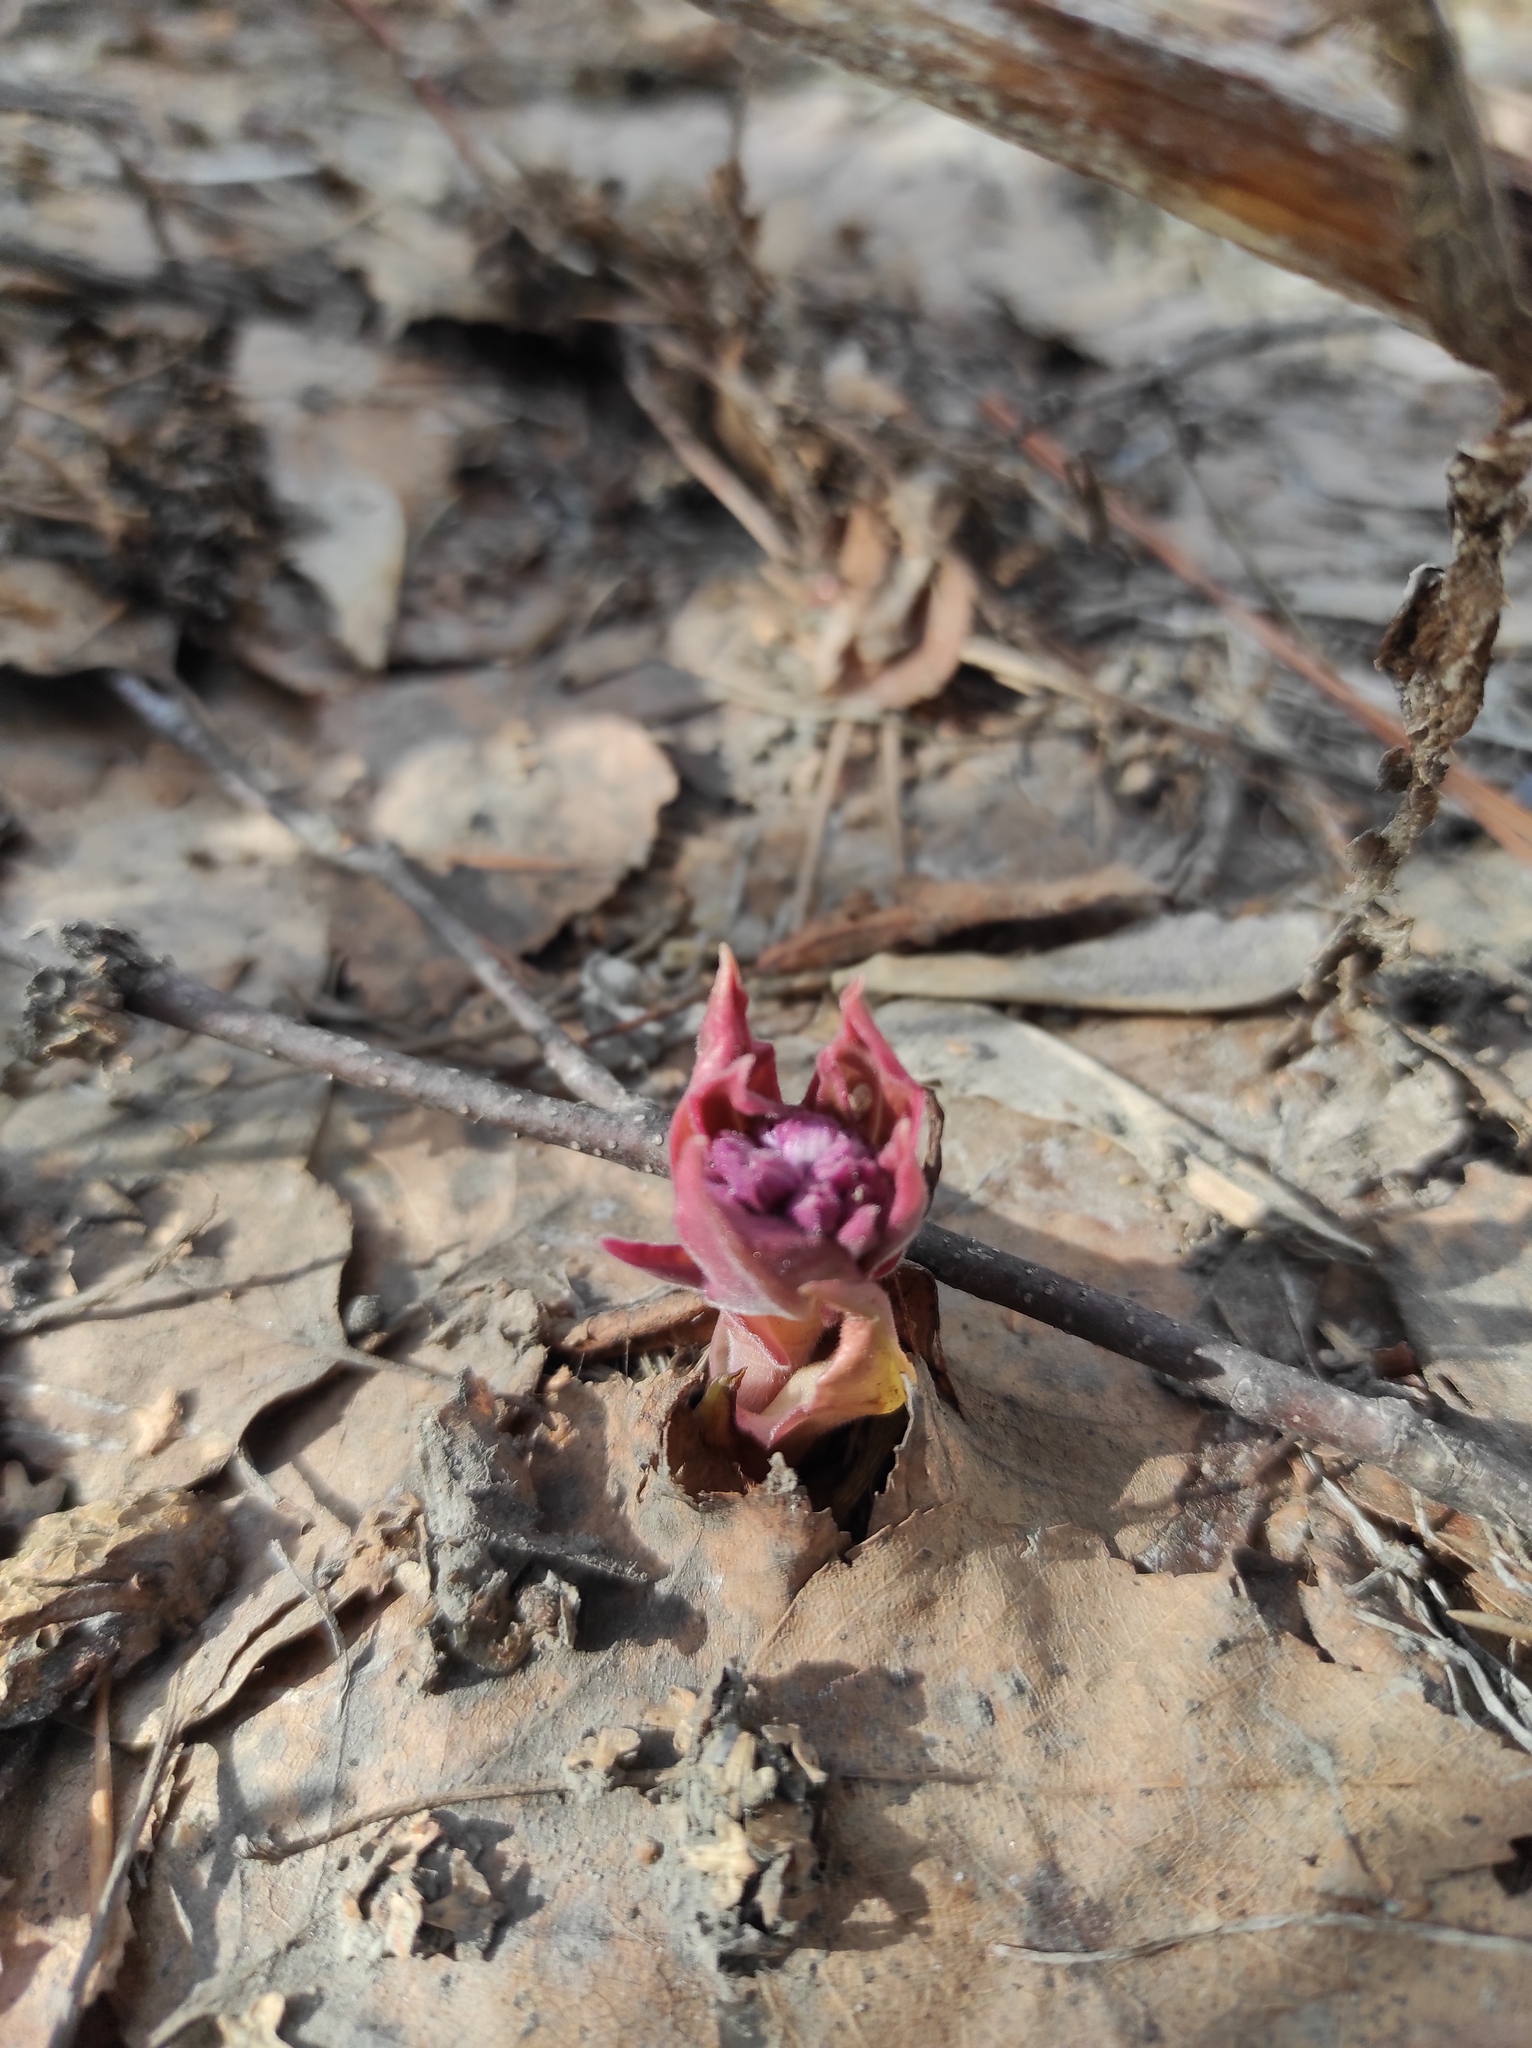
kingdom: Plantae
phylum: Tracheophyta
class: Magnoliopsida
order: Boraginales
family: Boraginaceae
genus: Pulmonaria
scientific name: Pulmonaria mollis
